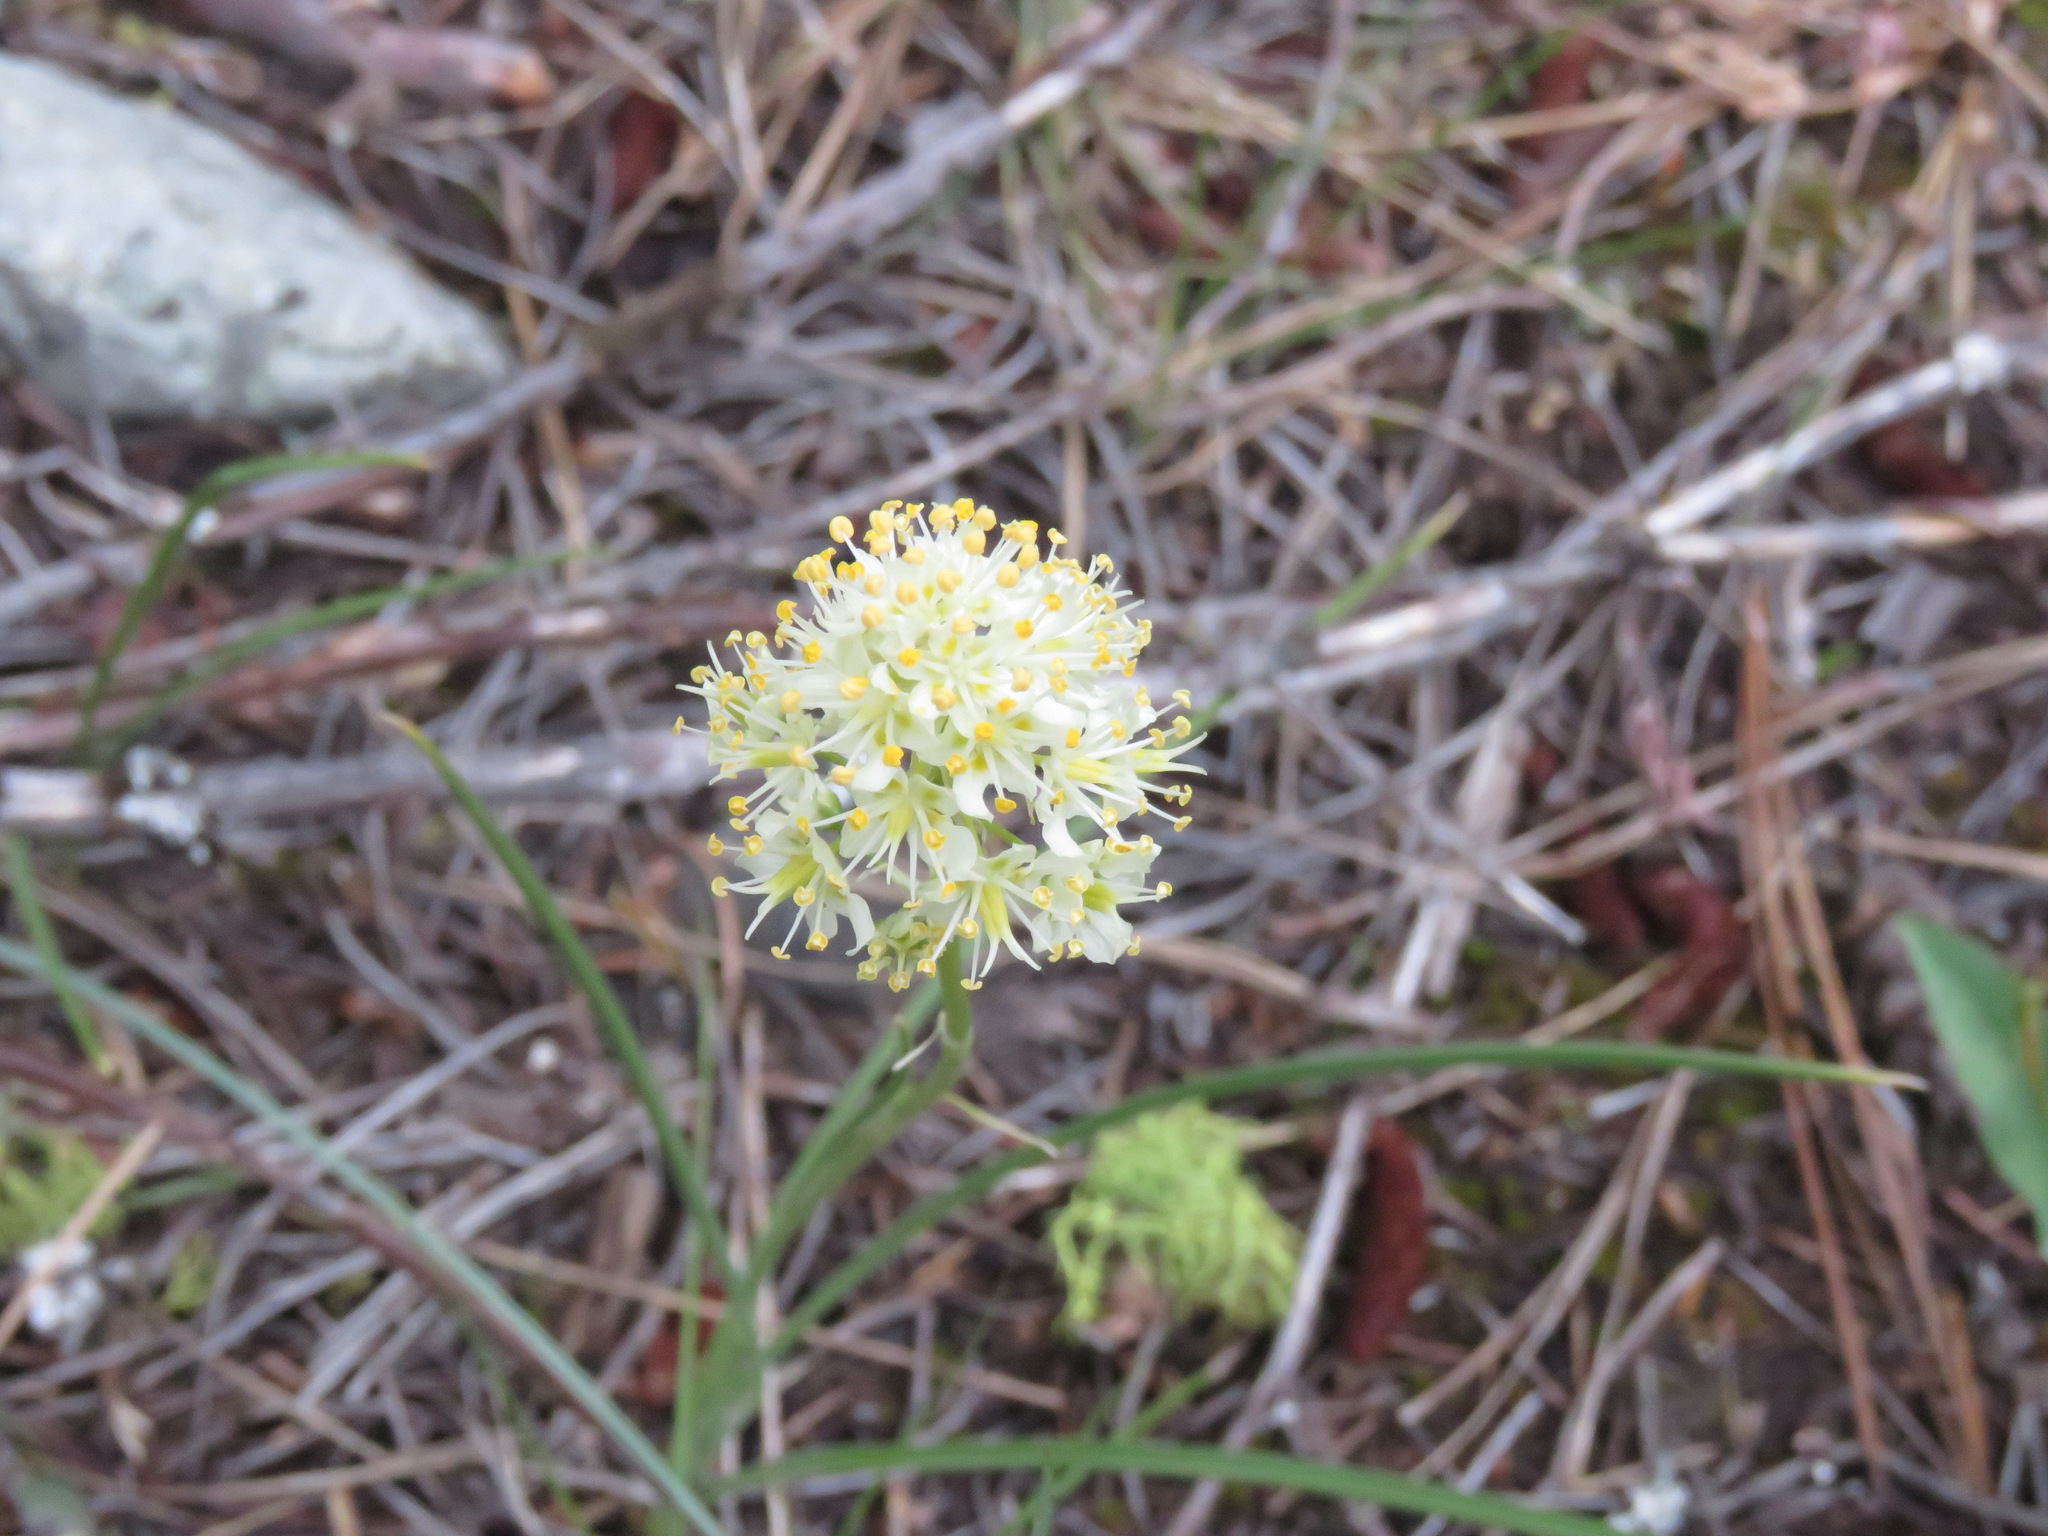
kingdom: Plantae
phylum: Tracheophyta
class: Liliopsida
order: Liliales
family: Melanthiaceae
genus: Toxicoscordion
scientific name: Toxicoscordion venenosum
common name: Meadow death camas
